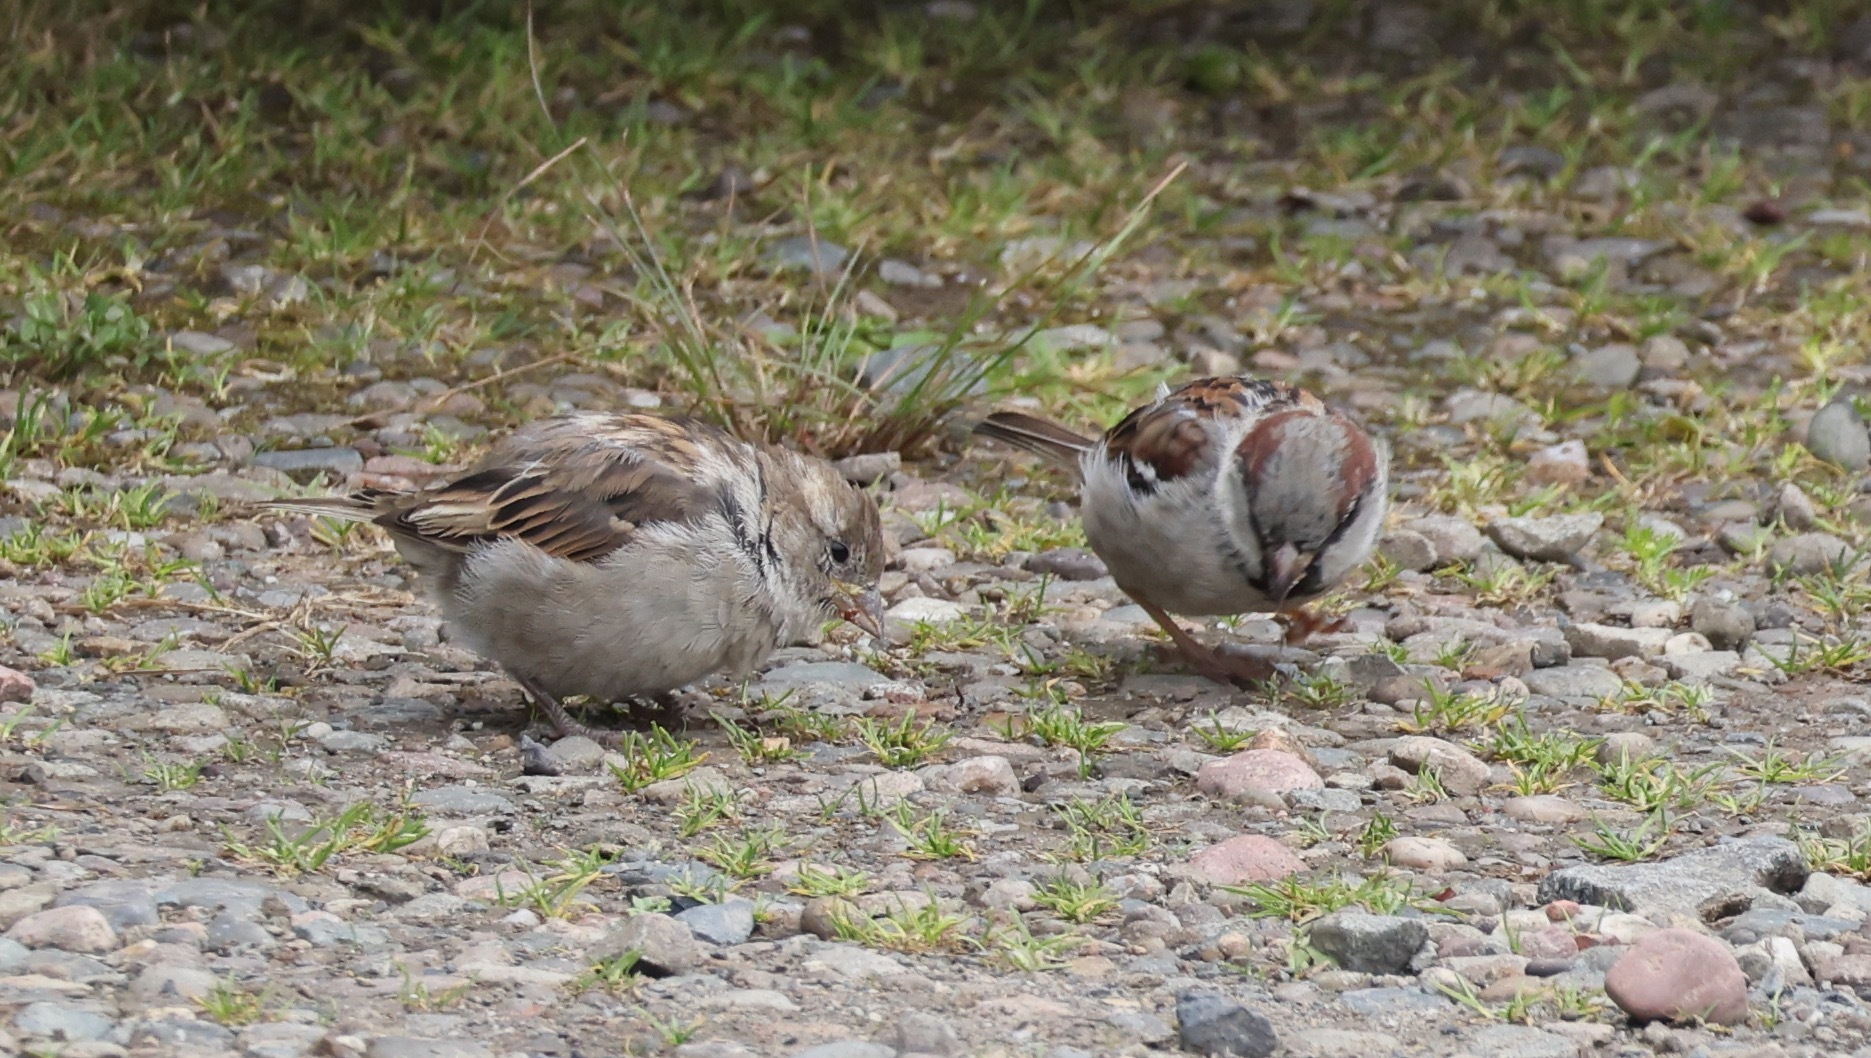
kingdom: Animalia
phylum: Chordata
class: Aves
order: Passeriformes
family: Passeridae
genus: Passer
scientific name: Passer domesticus
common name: House sparrow
